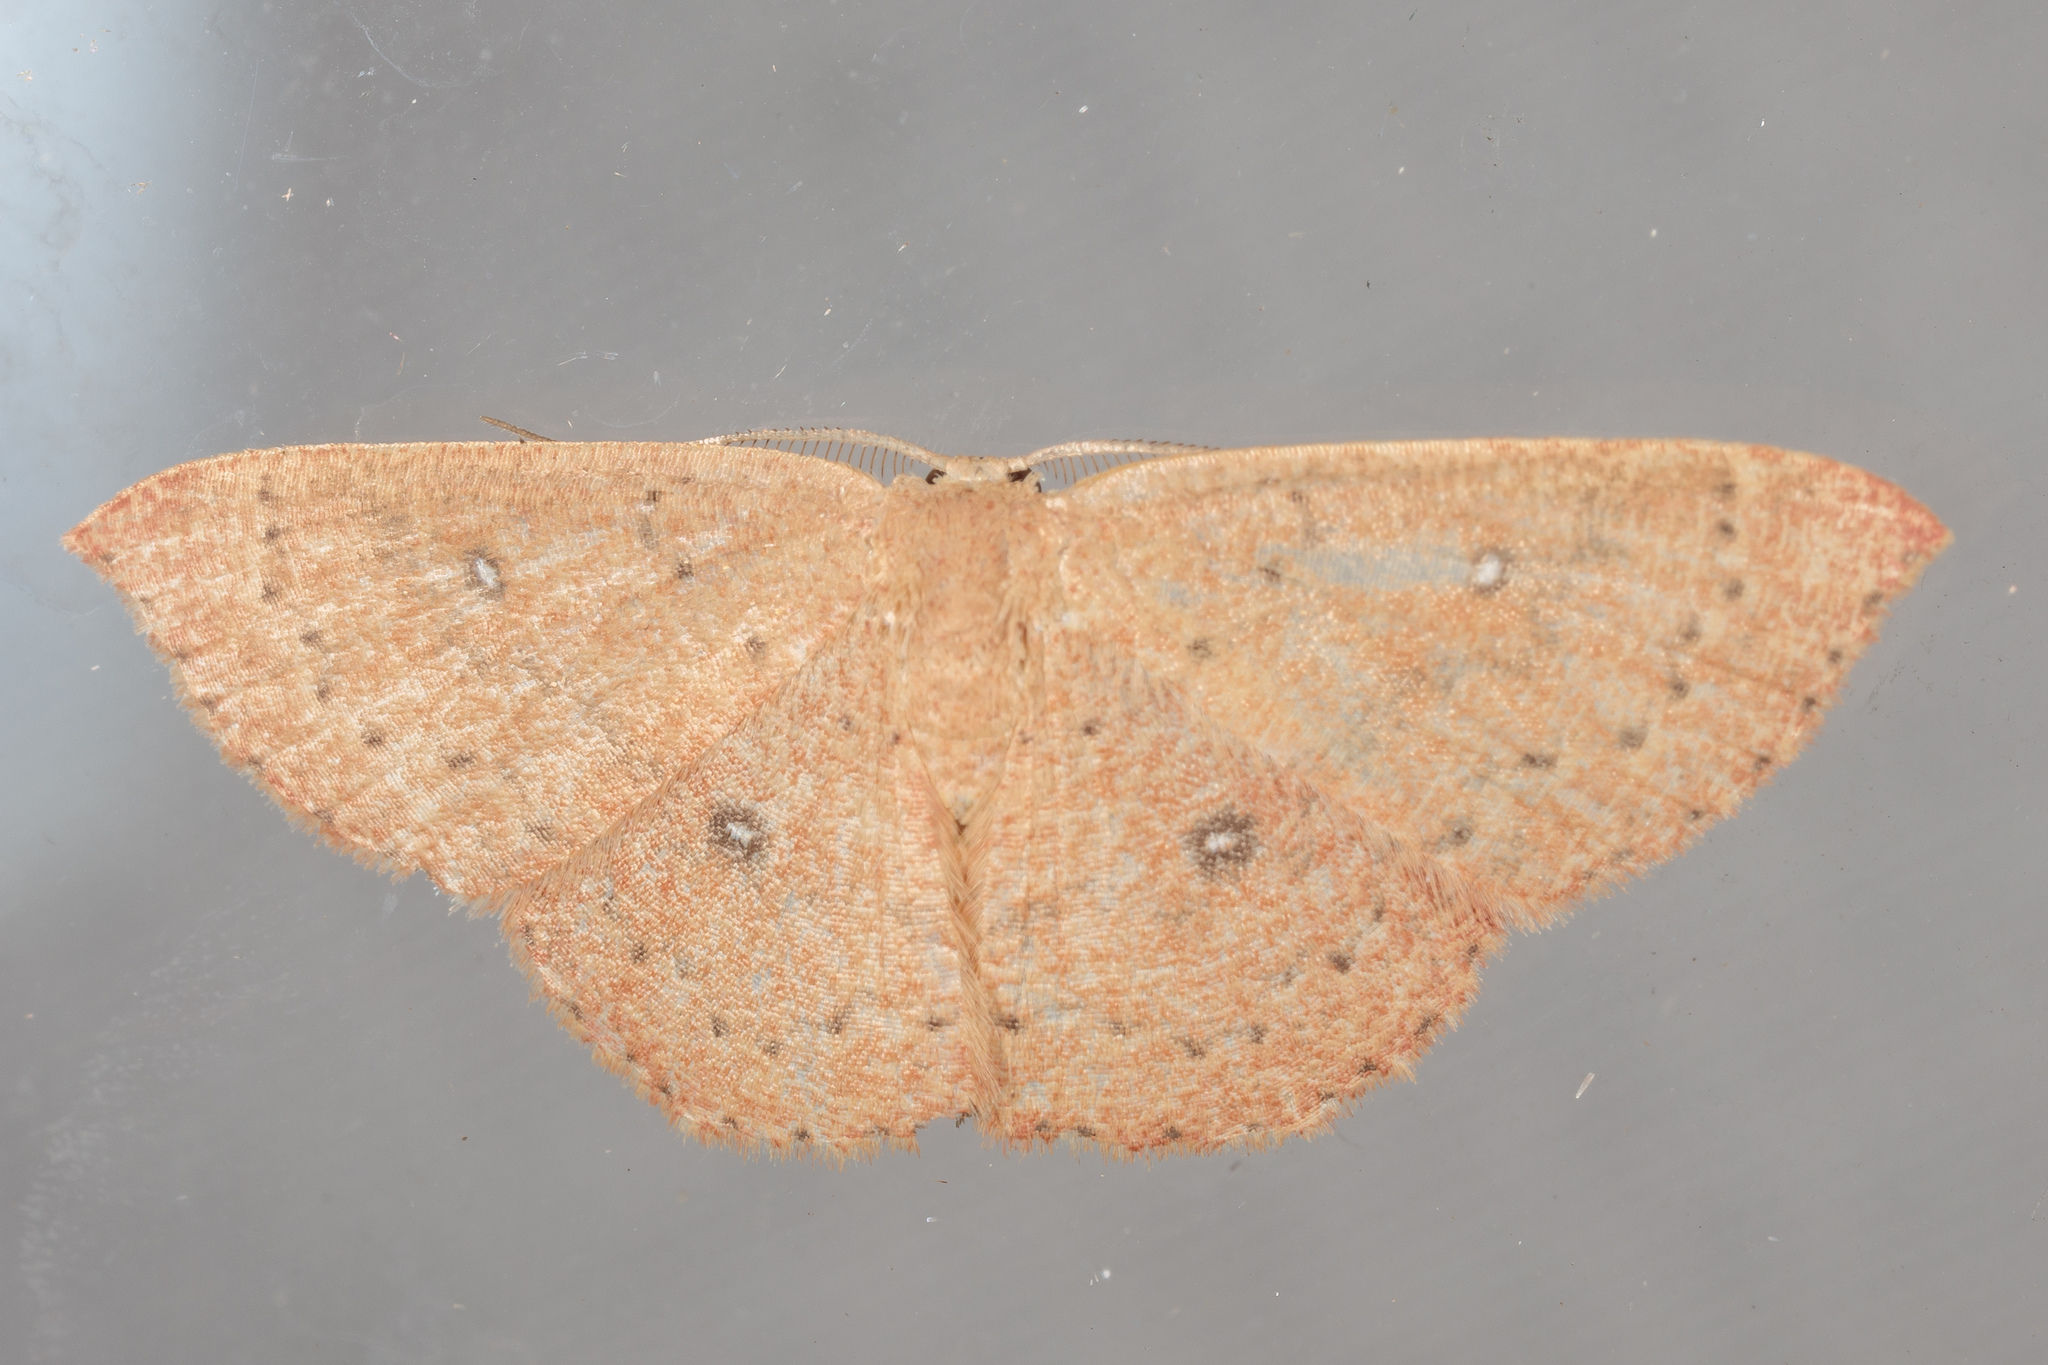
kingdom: Animalia
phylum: Arthropoda
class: Insecta
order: Lepidoptera
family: Geometridae
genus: Cyclophora
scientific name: Cyclophora packardi
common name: Packard's wave
